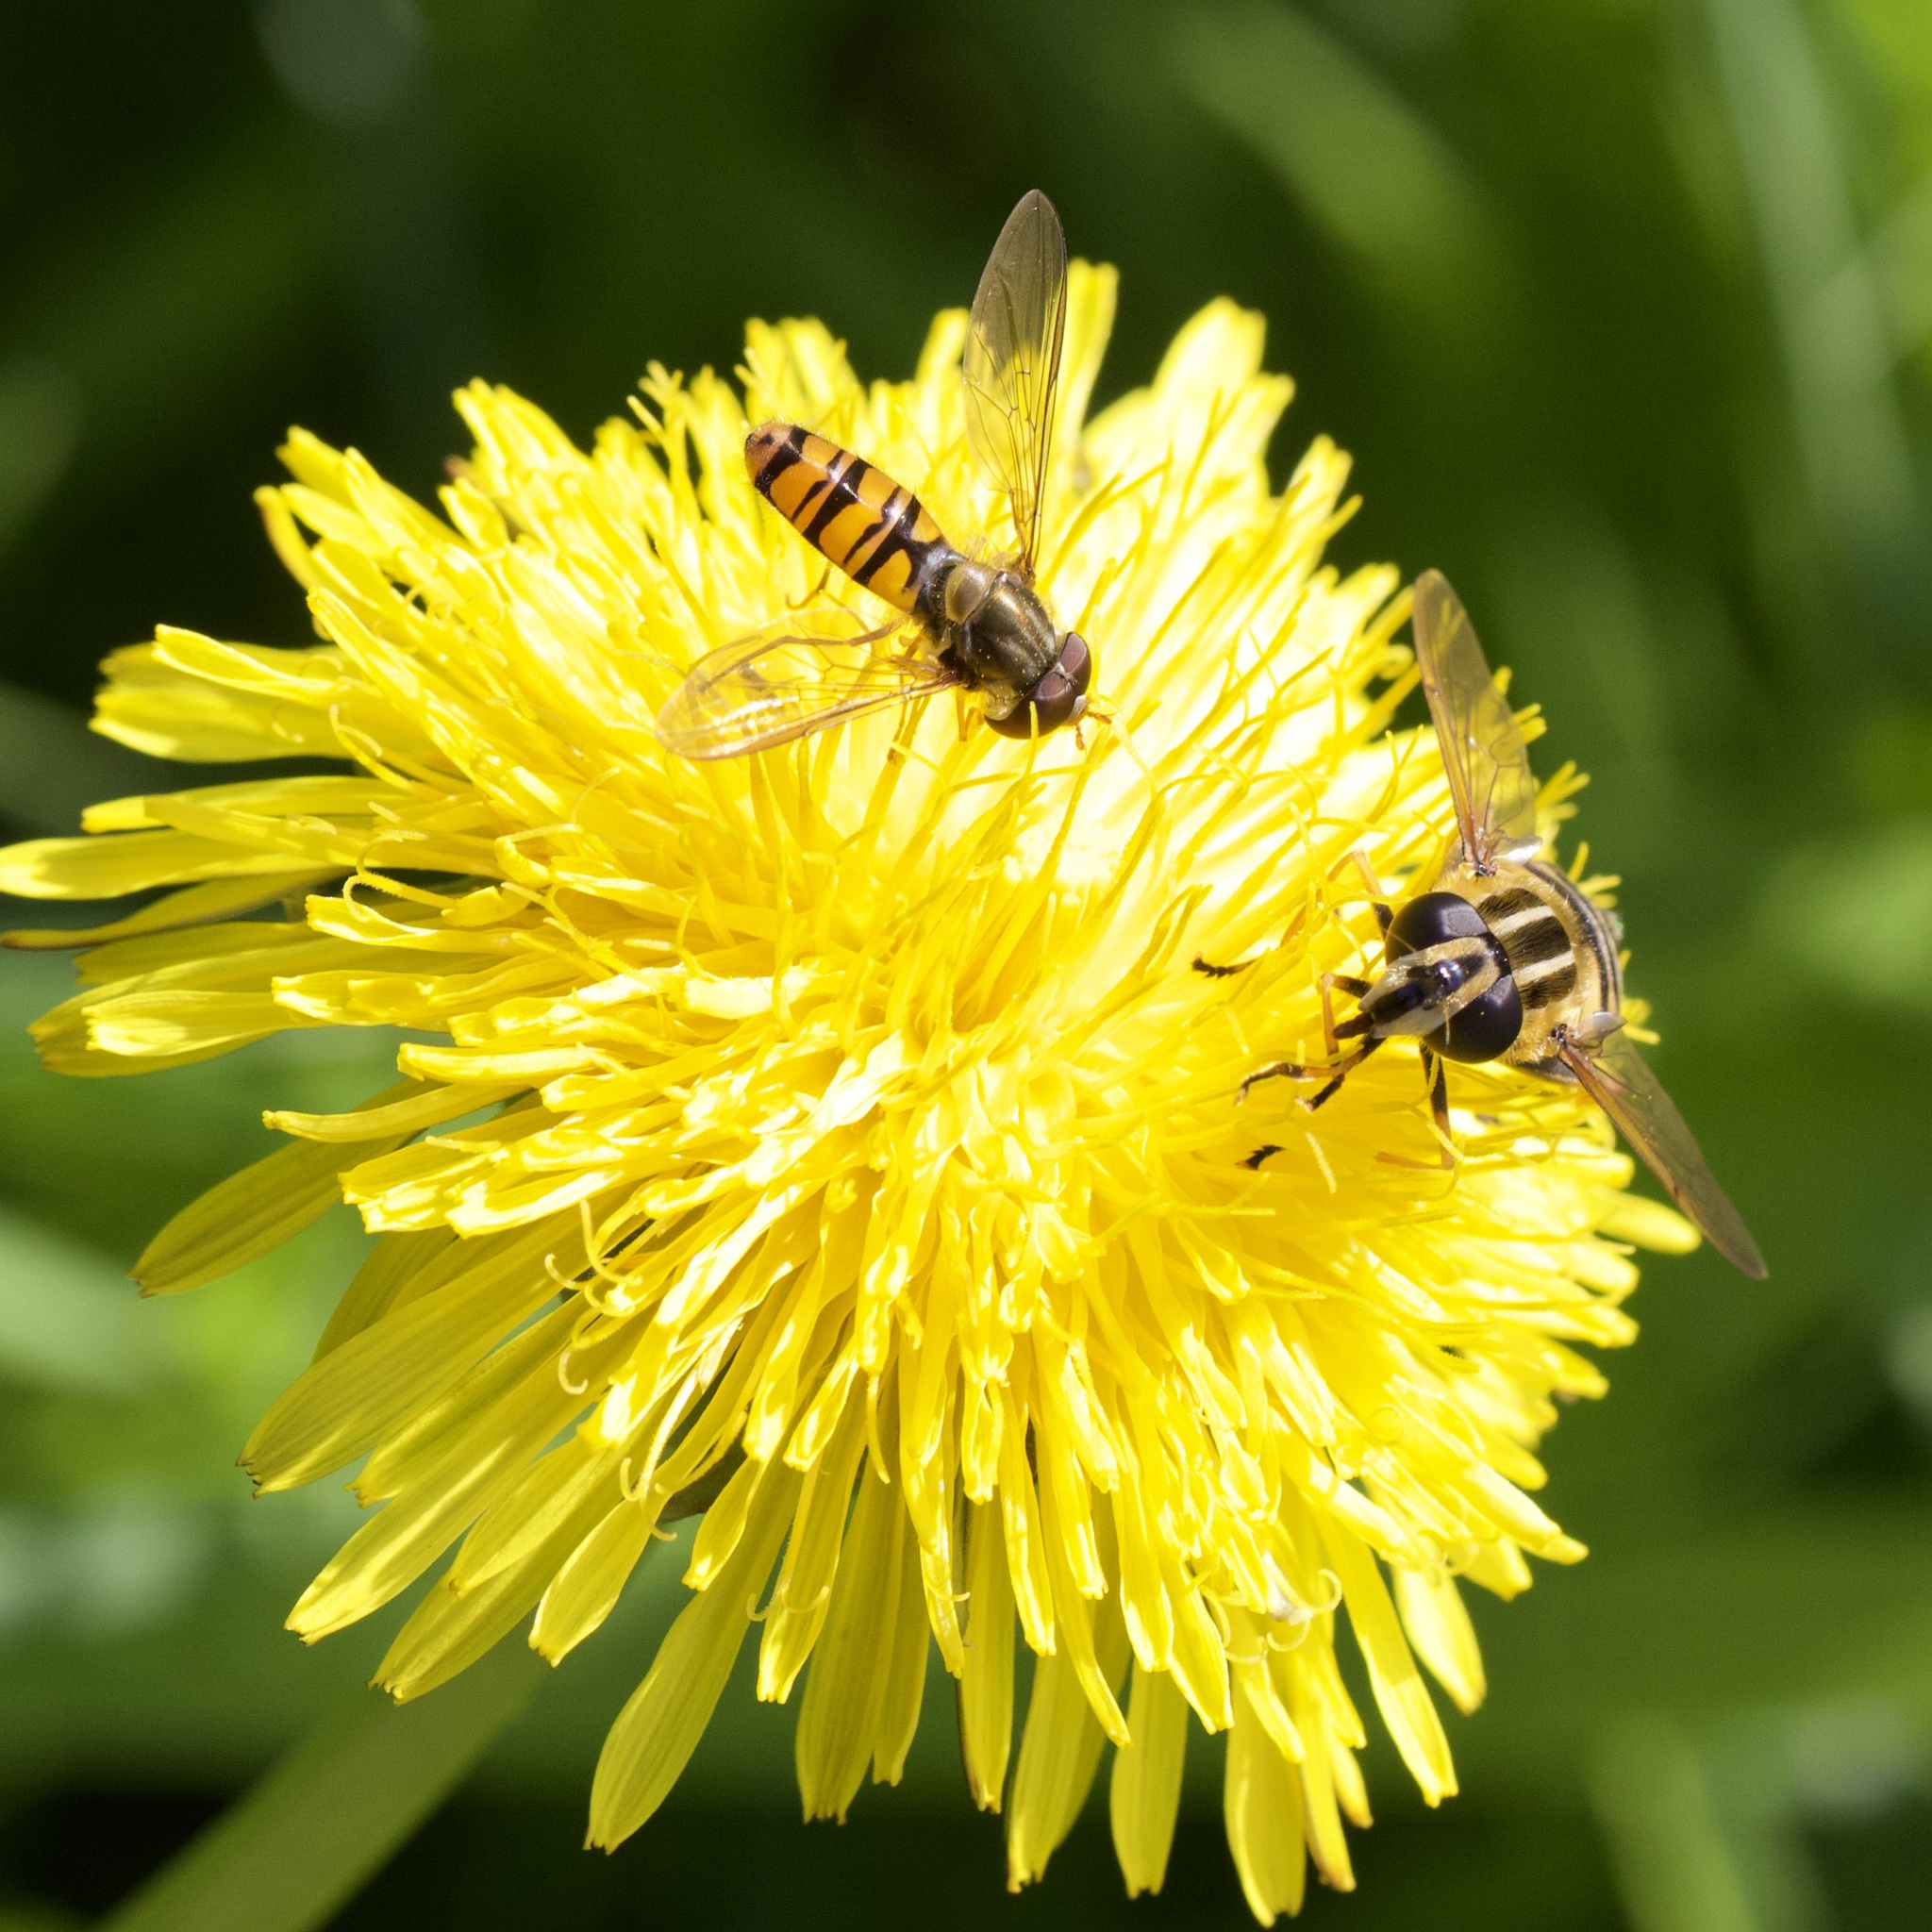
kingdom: Animalia
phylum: Arthropoda
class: Insecta
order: Diptera
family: Syrphidae
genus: Episyrphus
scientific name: Episyrphus balteatus
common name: Marmalade hoverfly
